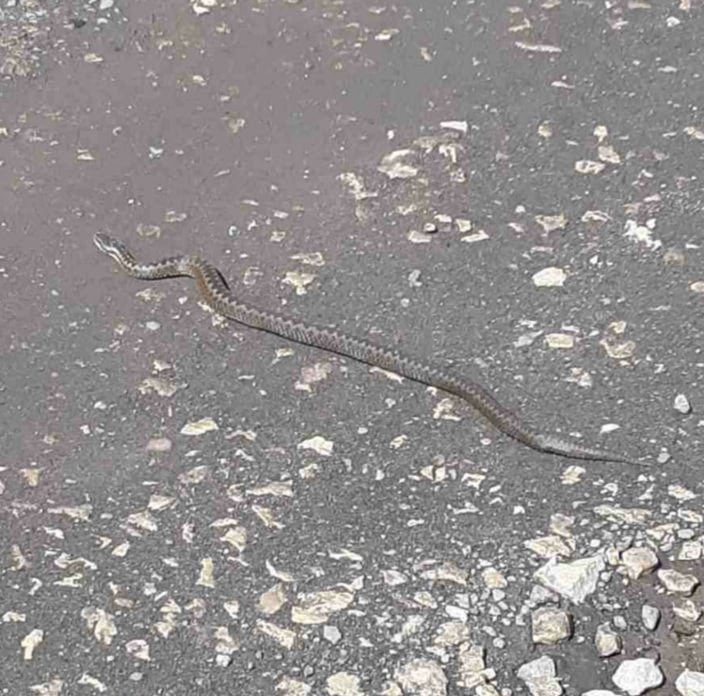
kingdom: Animalia
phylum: Chordata
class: Squamata
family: Viperidae
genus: Vipera
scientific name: Vipera berus
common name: Adder
